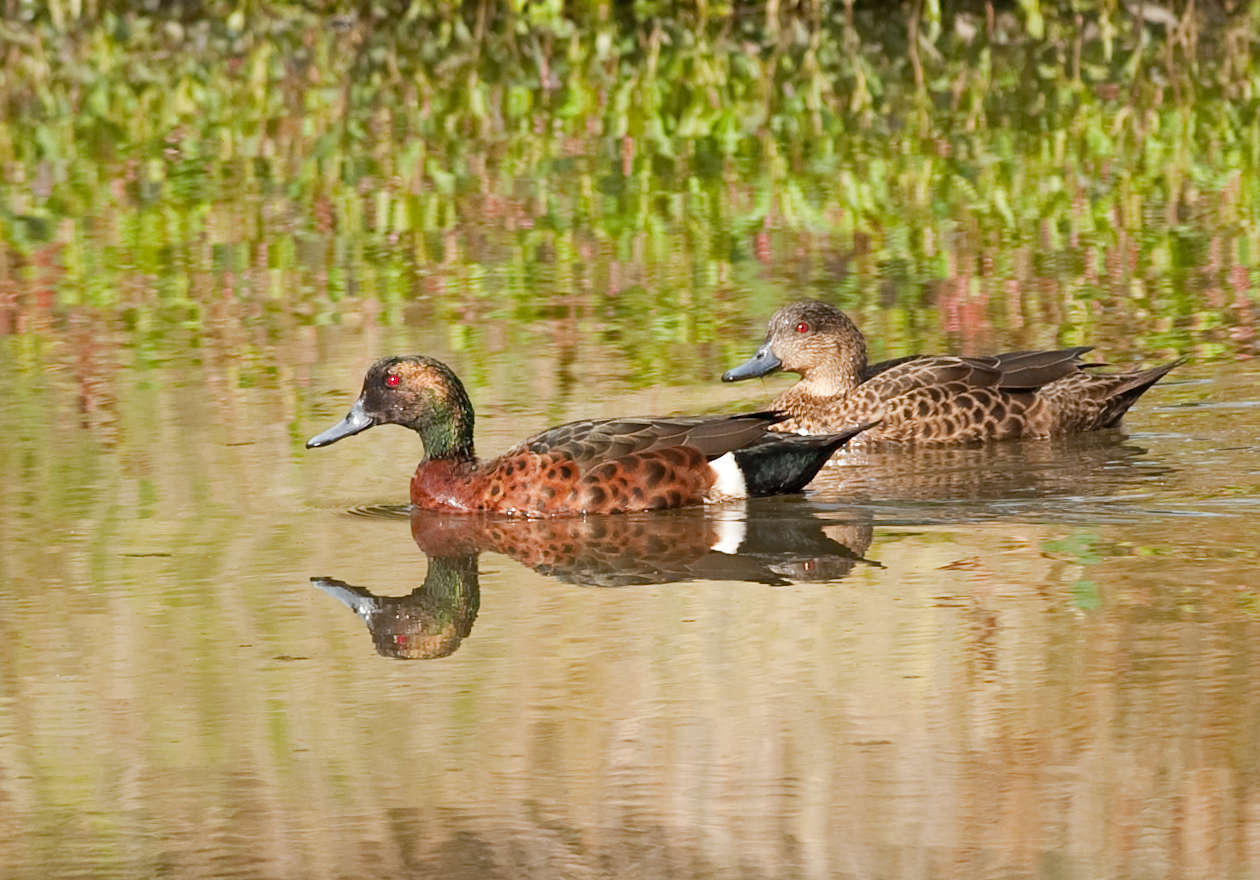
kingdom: Animalia
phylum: Chordata
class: Aves
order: Anseriformes
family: Anatidae
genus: Anas
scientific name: Anas castanea
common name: Chestnut teal
